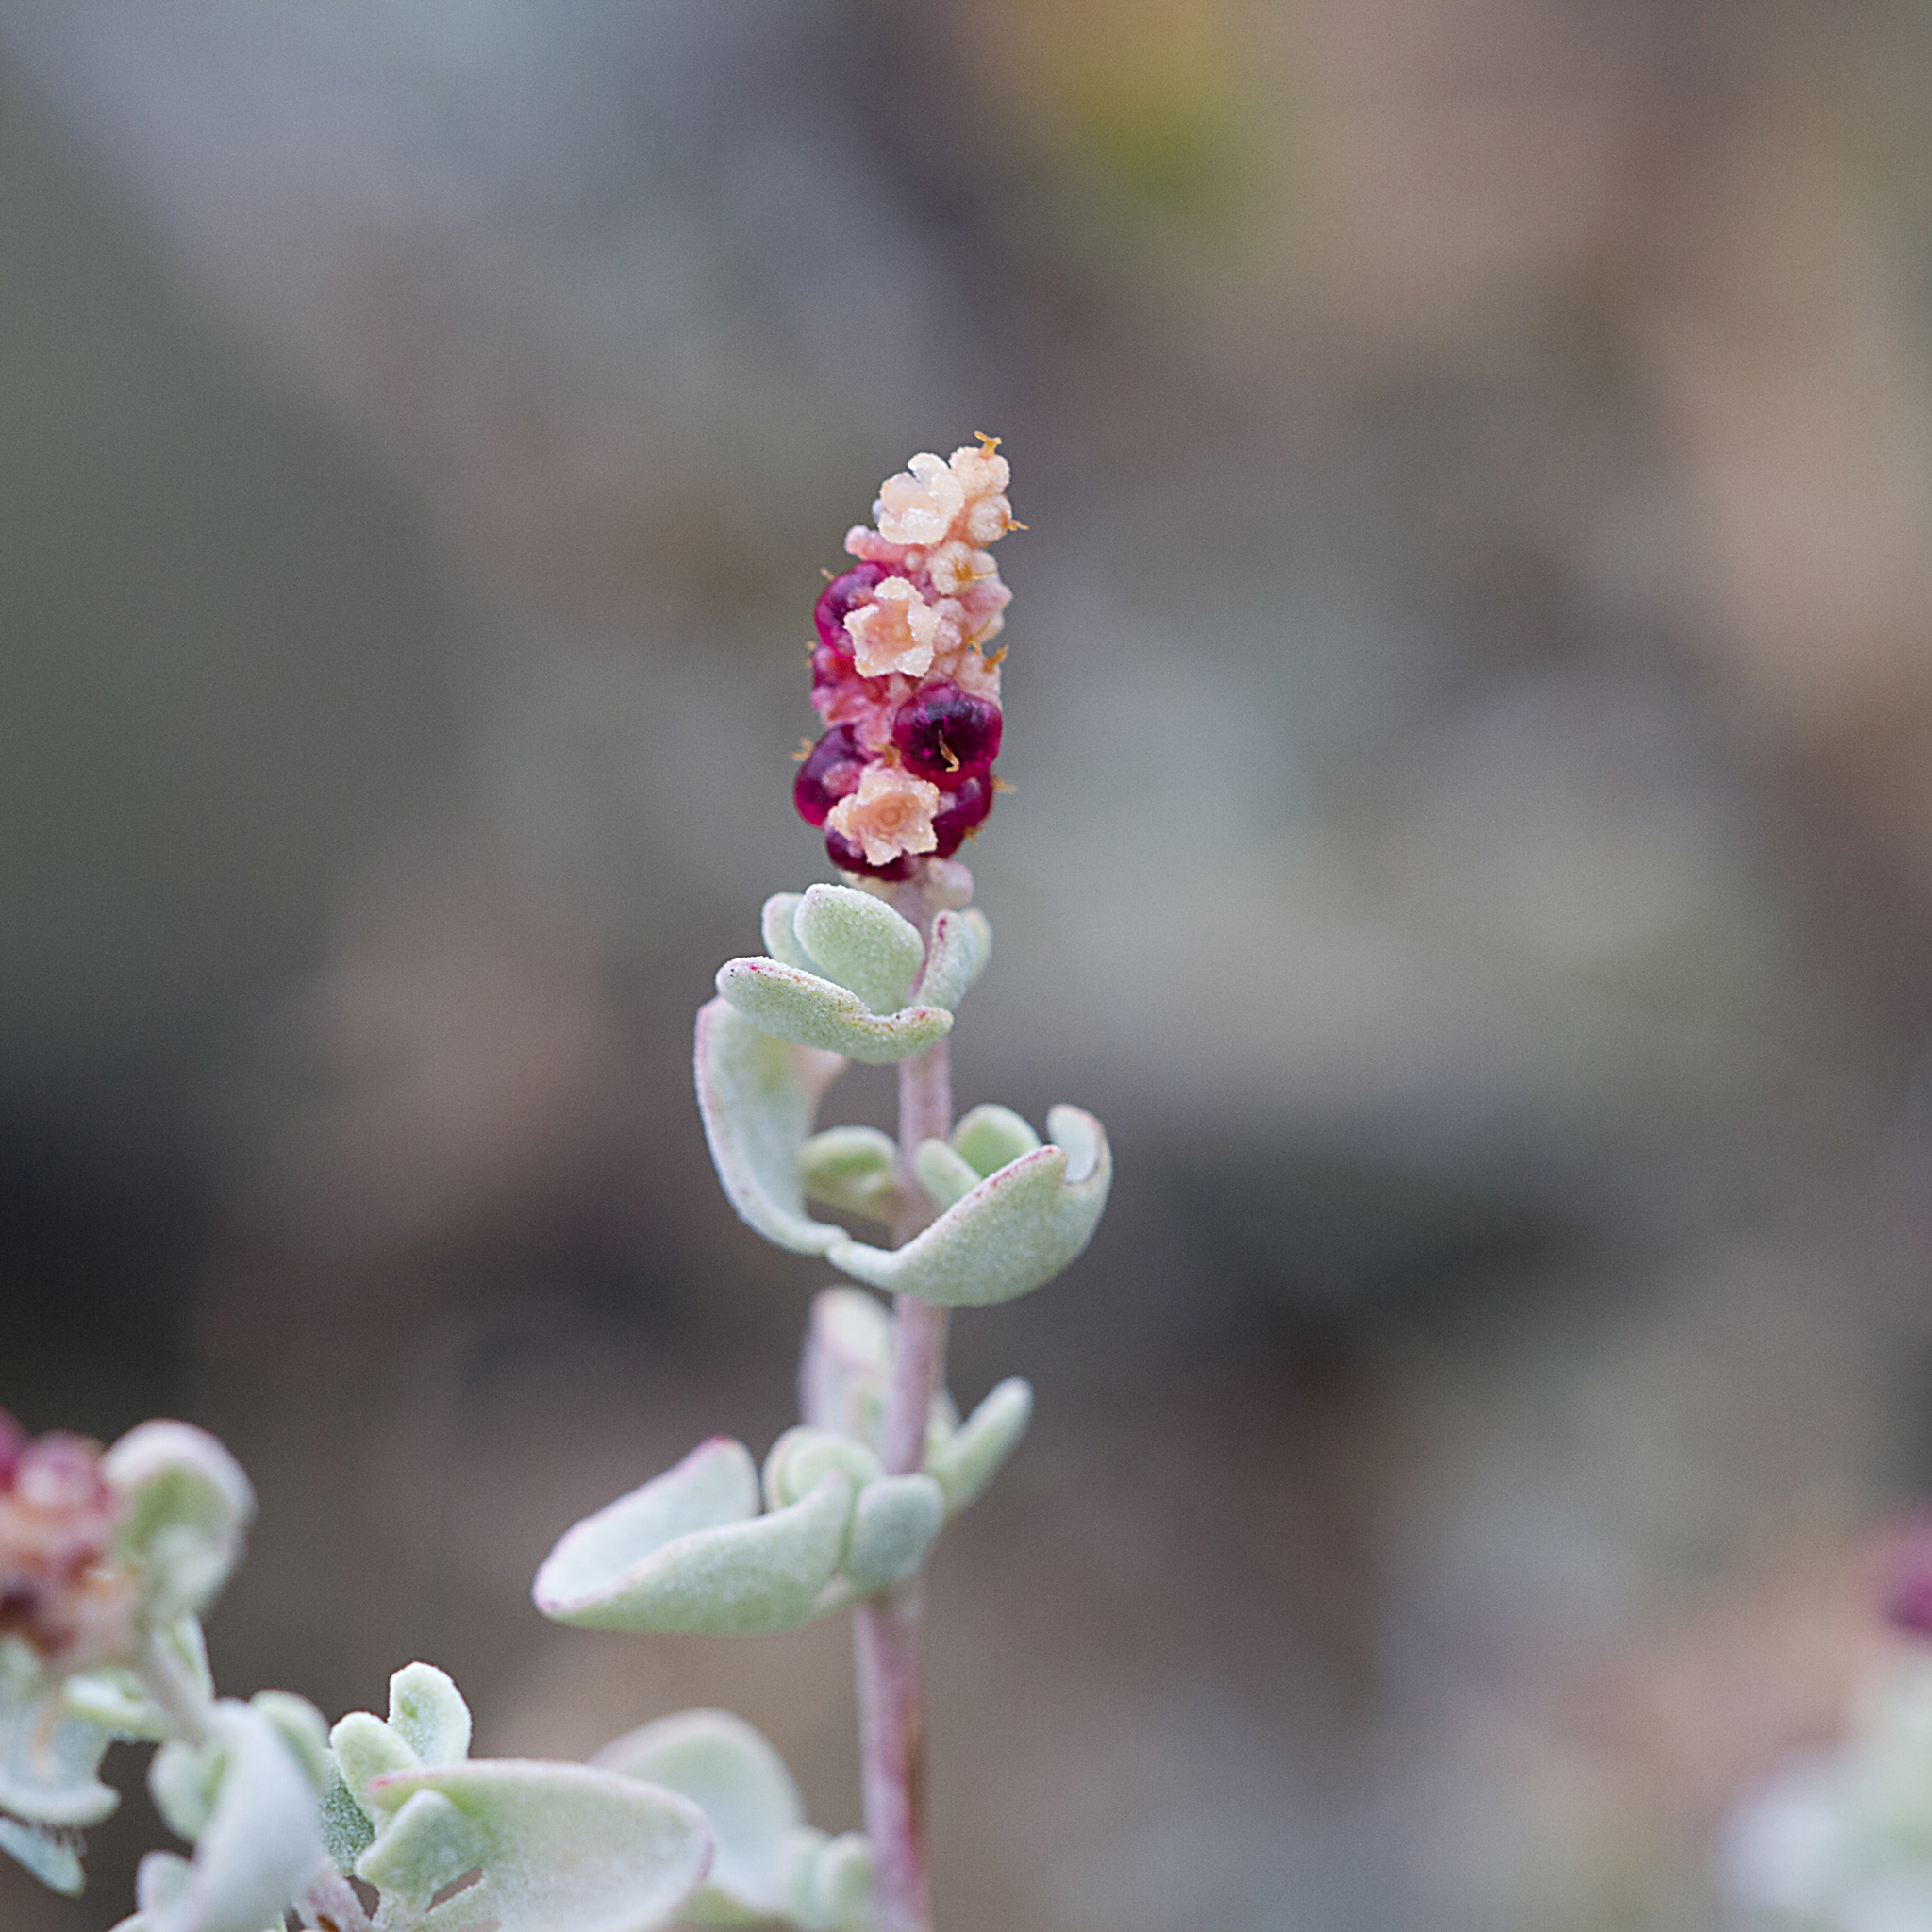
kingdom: Plantae
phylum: Tracheophyta
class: Magnoliopsida
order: Caryophyllales
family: Amaranthaceae
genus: Chenopodium
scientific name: Chenopodium spinescens
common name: Berry-saltbush
